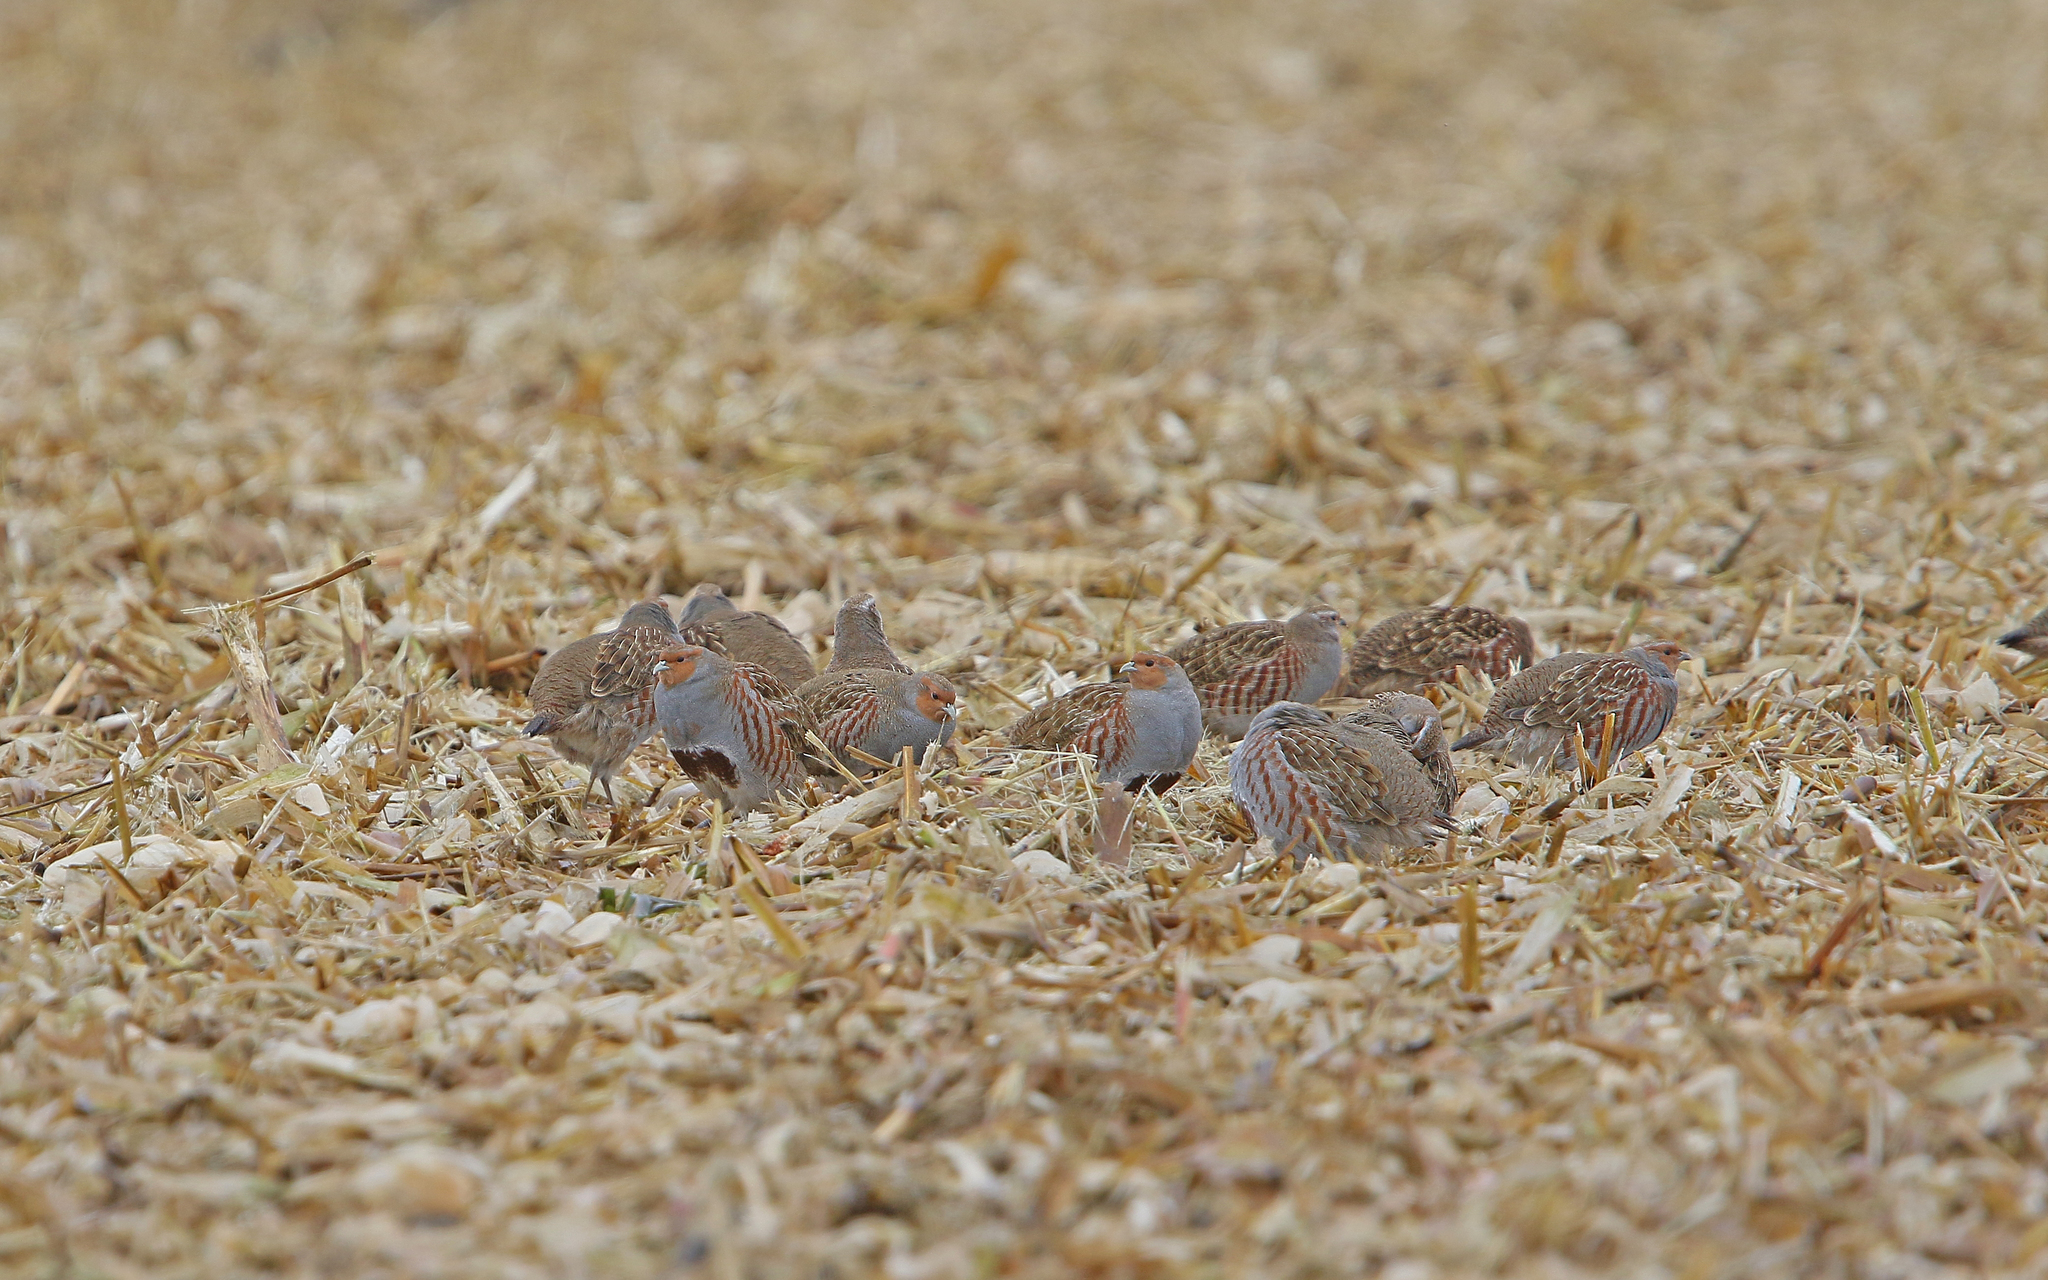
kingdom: Animalia
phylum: Chordata
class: Aves
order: Galliformes
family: Phasianidae
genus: Perdix
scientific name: Perdix perdix
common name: Grey partridge
